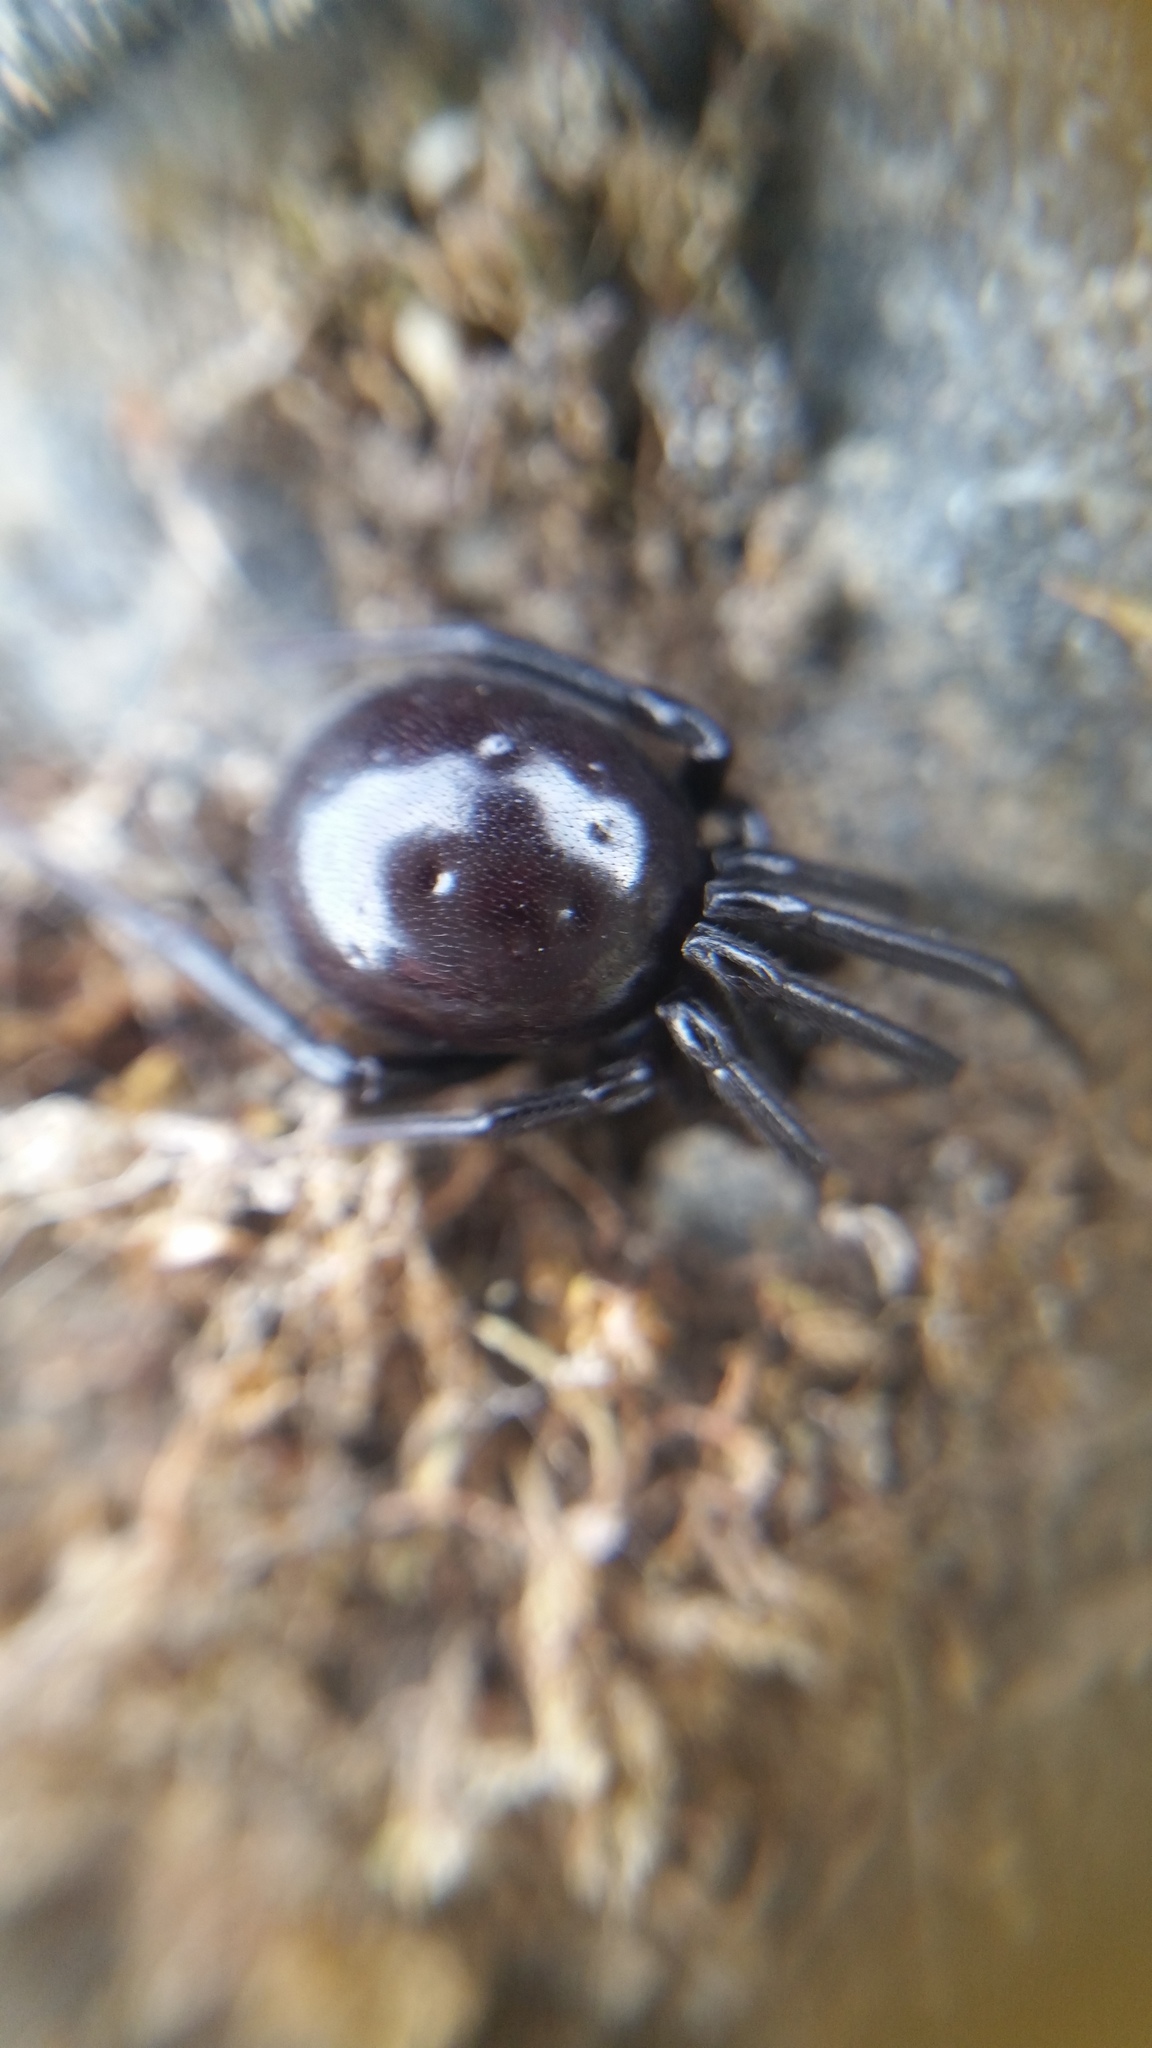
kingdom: Animalia
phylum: Arthropoda
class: Arachnida
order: Araneae
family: Theridiidae
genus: Steatoda
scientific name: Steatoda capensis
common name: Cobweb weaver
